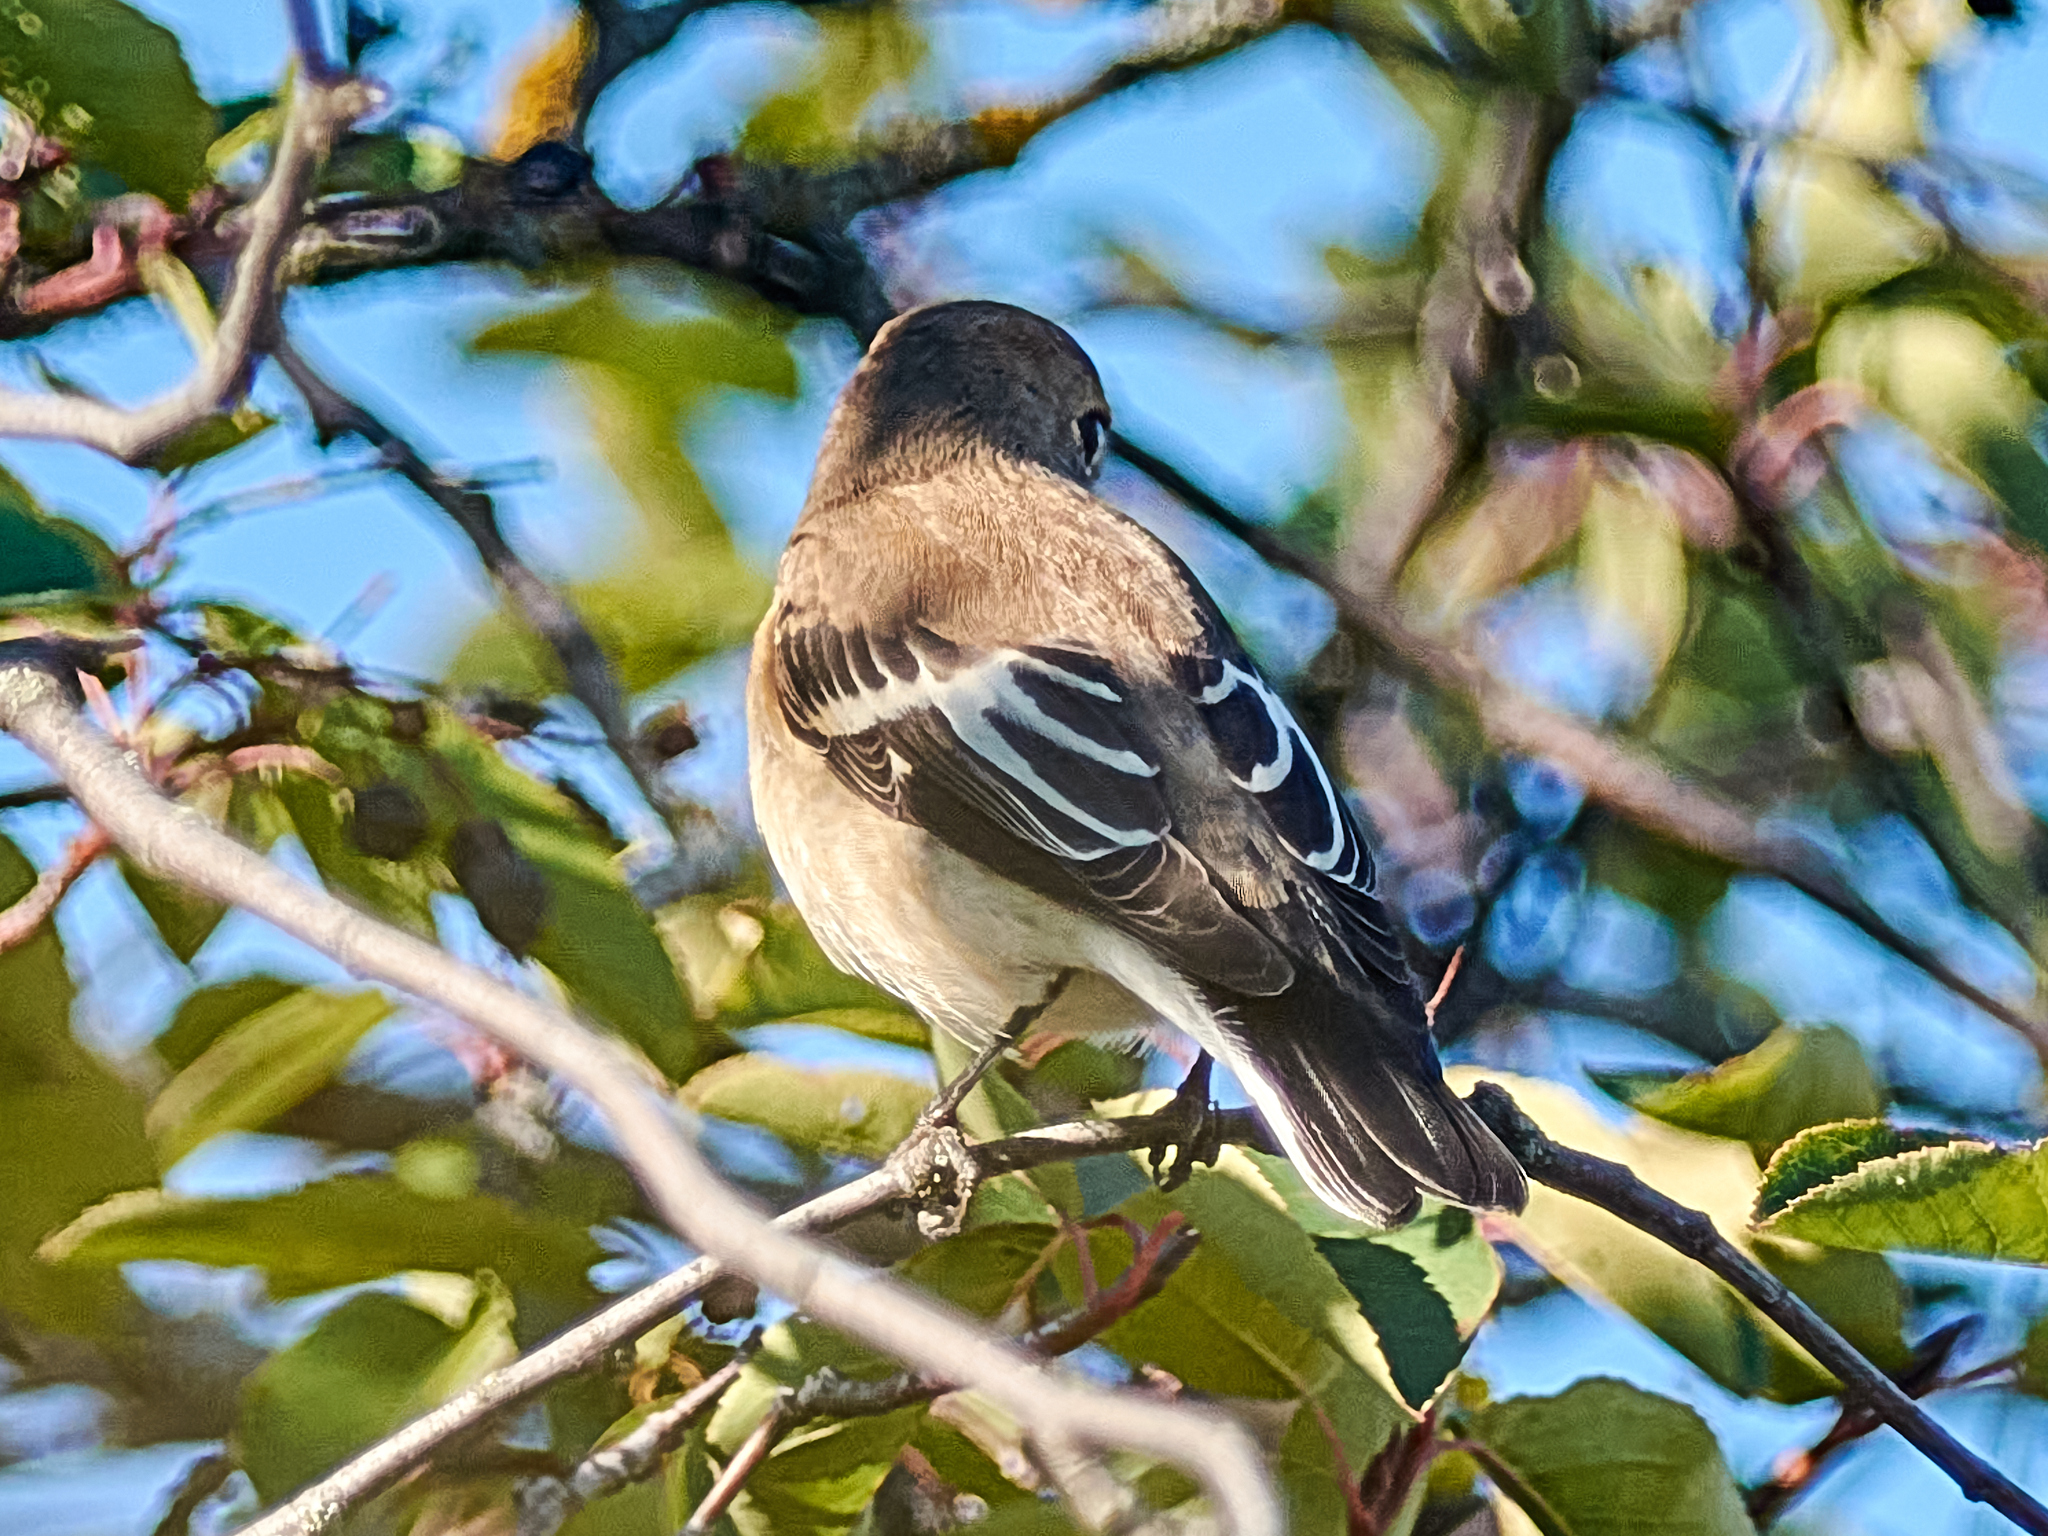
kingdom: Animalia
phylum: Chordata
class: Aves
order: Passeriformes
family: Muscicapidae
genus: Ficedula
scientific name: Ficedula hypoleuca
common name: European pied flycatcher
